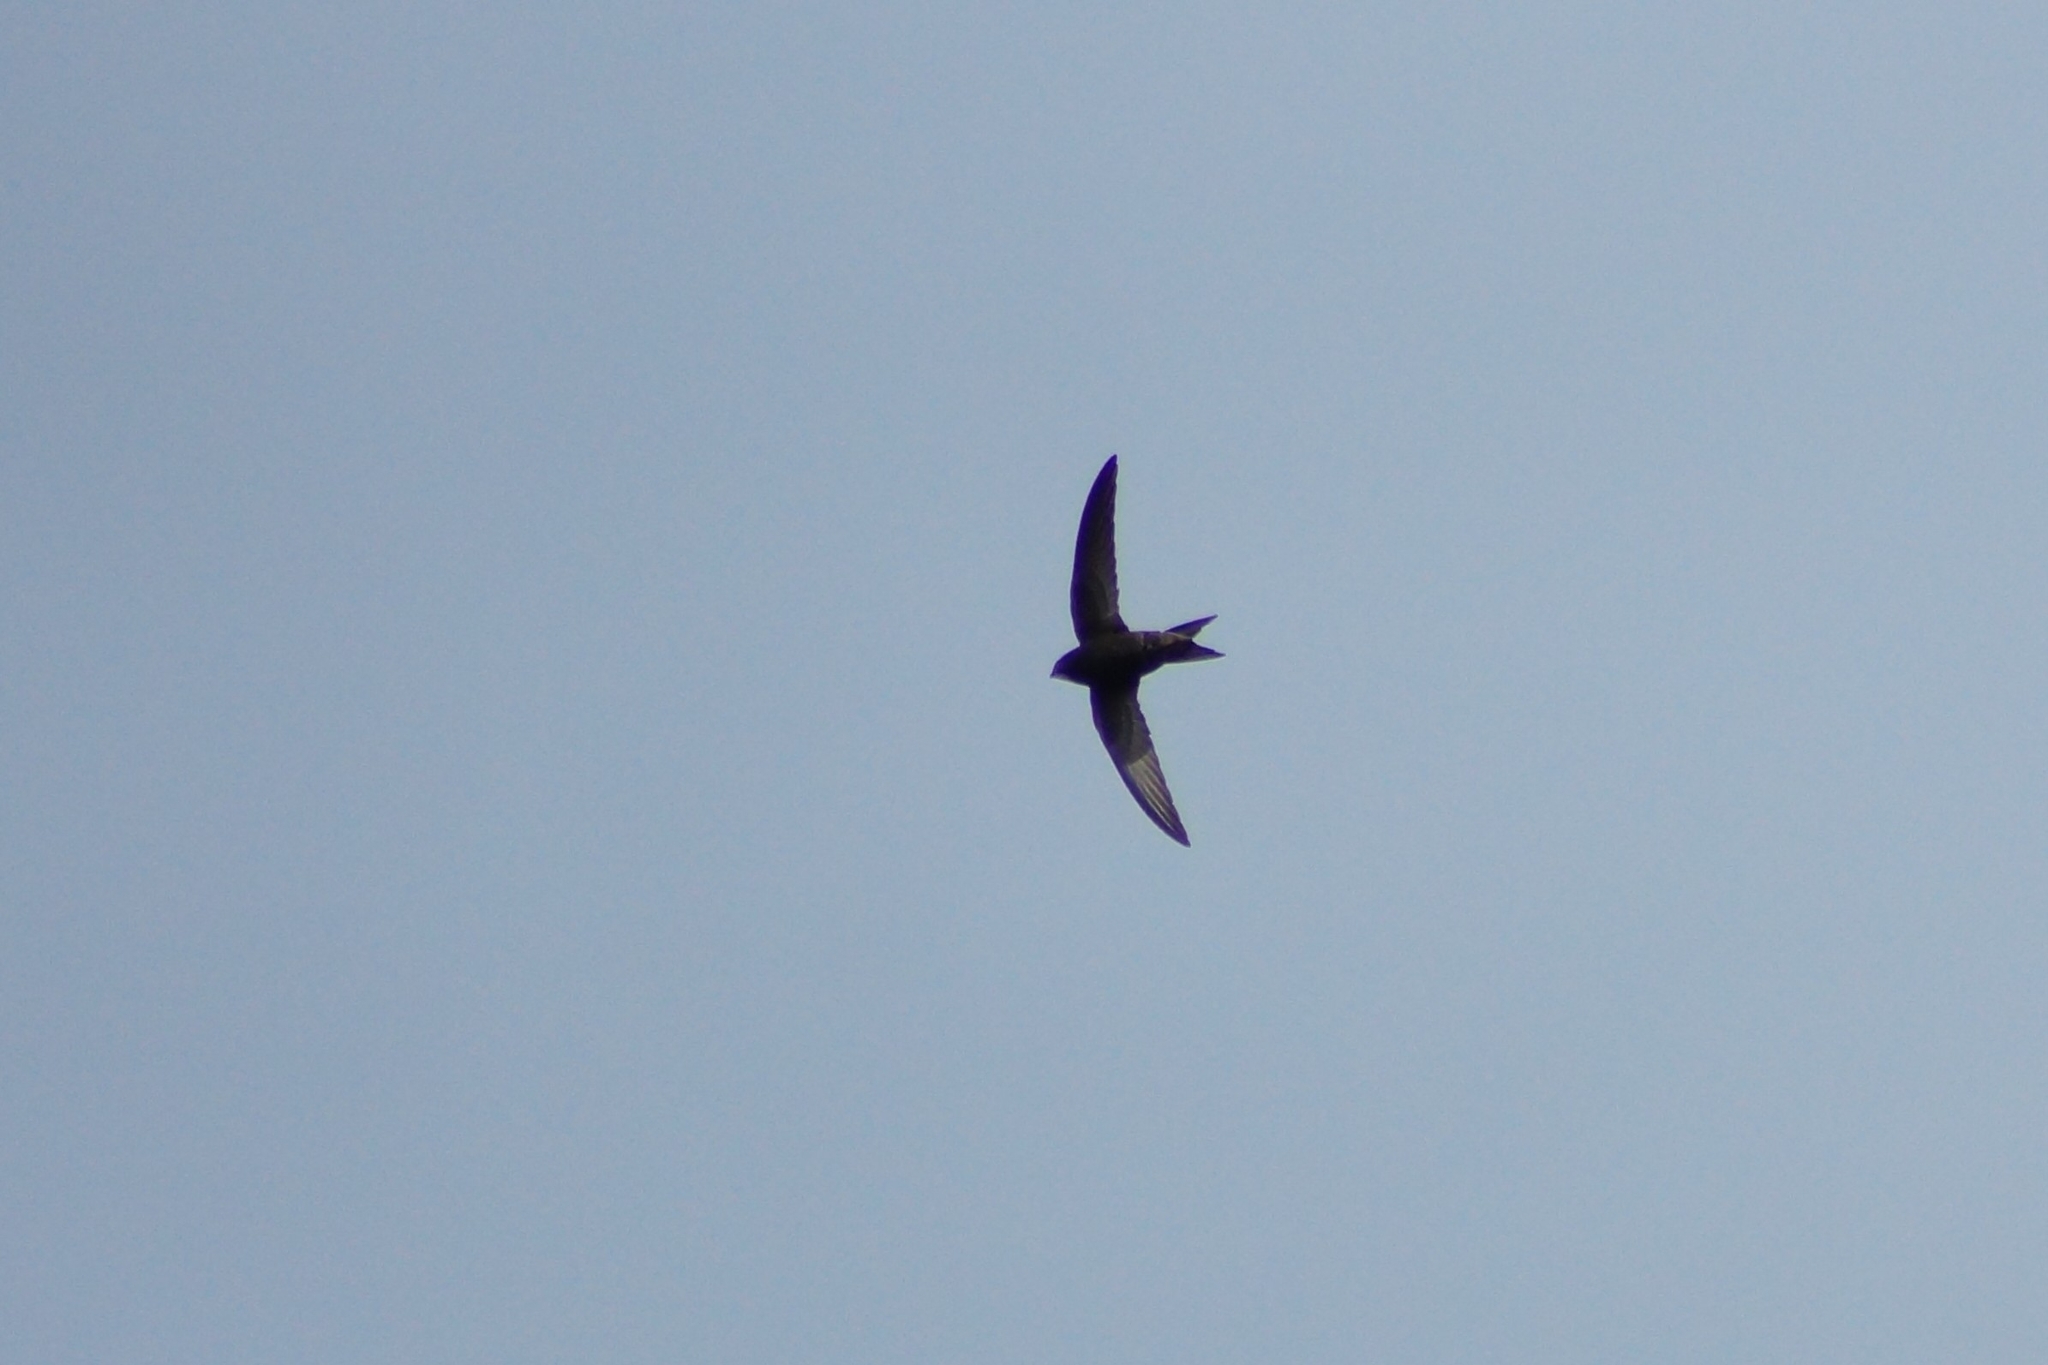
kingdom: Animalia
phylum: Chordata
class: Aves
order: Apodiformes
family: Apodidae
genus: Apus
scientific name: Apus apus
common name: Common swift
